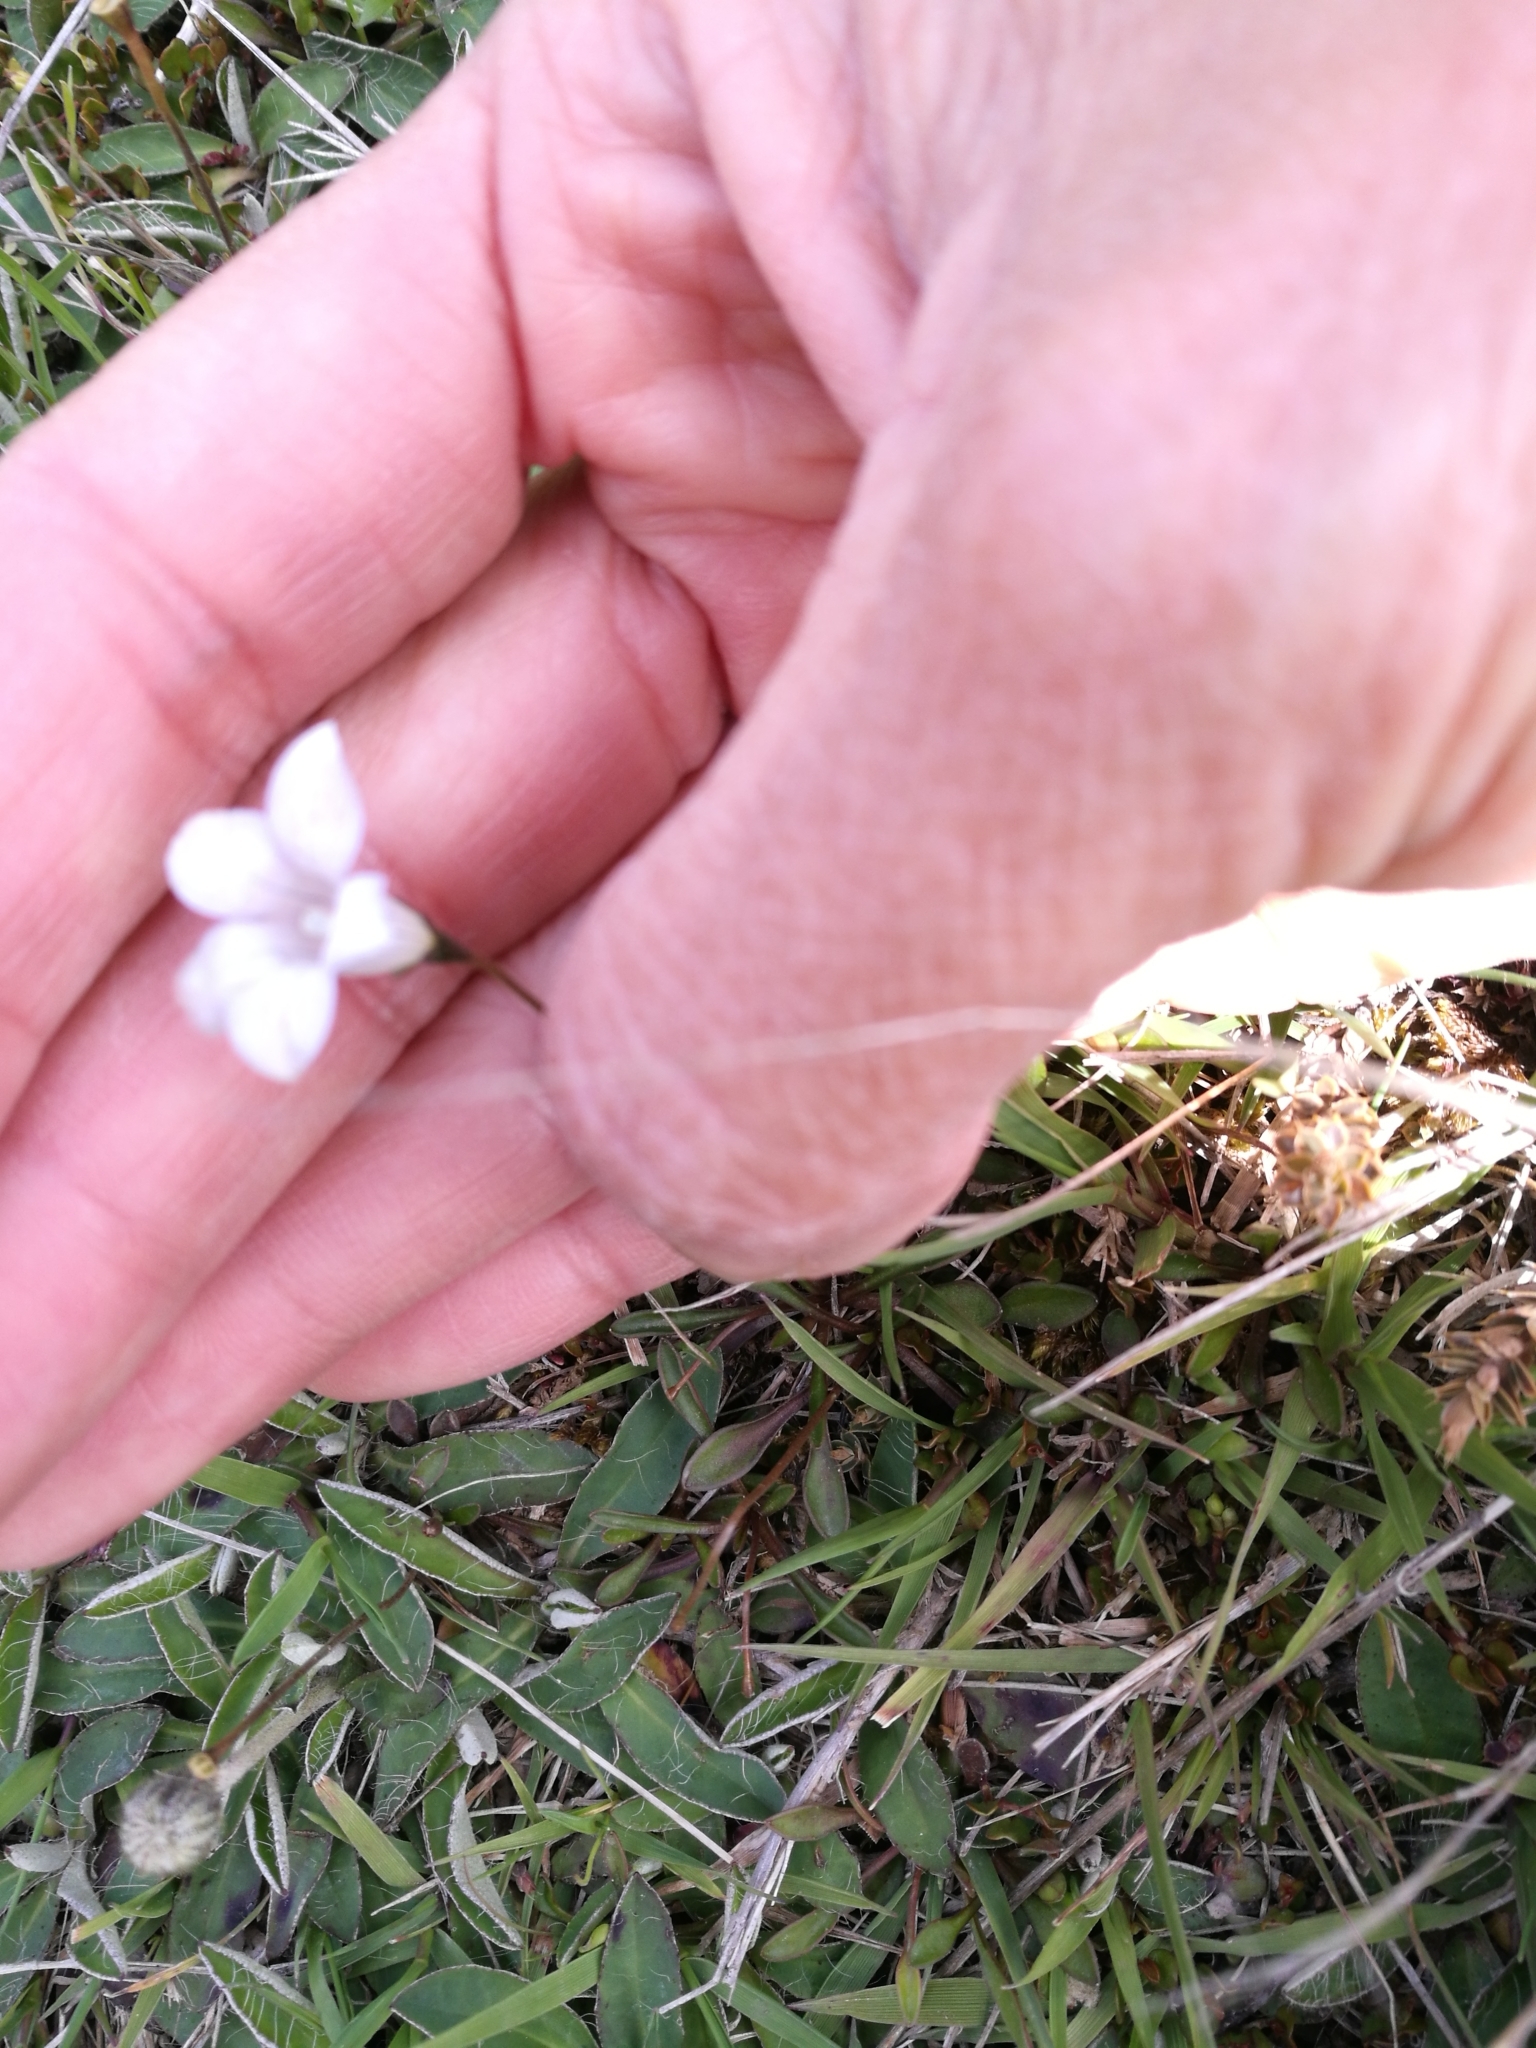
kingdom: Plantae
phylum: Tracheophyta
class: Magnoliopsida
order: Asterales
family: Campanulaceae
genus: Wahlenbergia
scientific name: Wahlenbergia albomarginata
